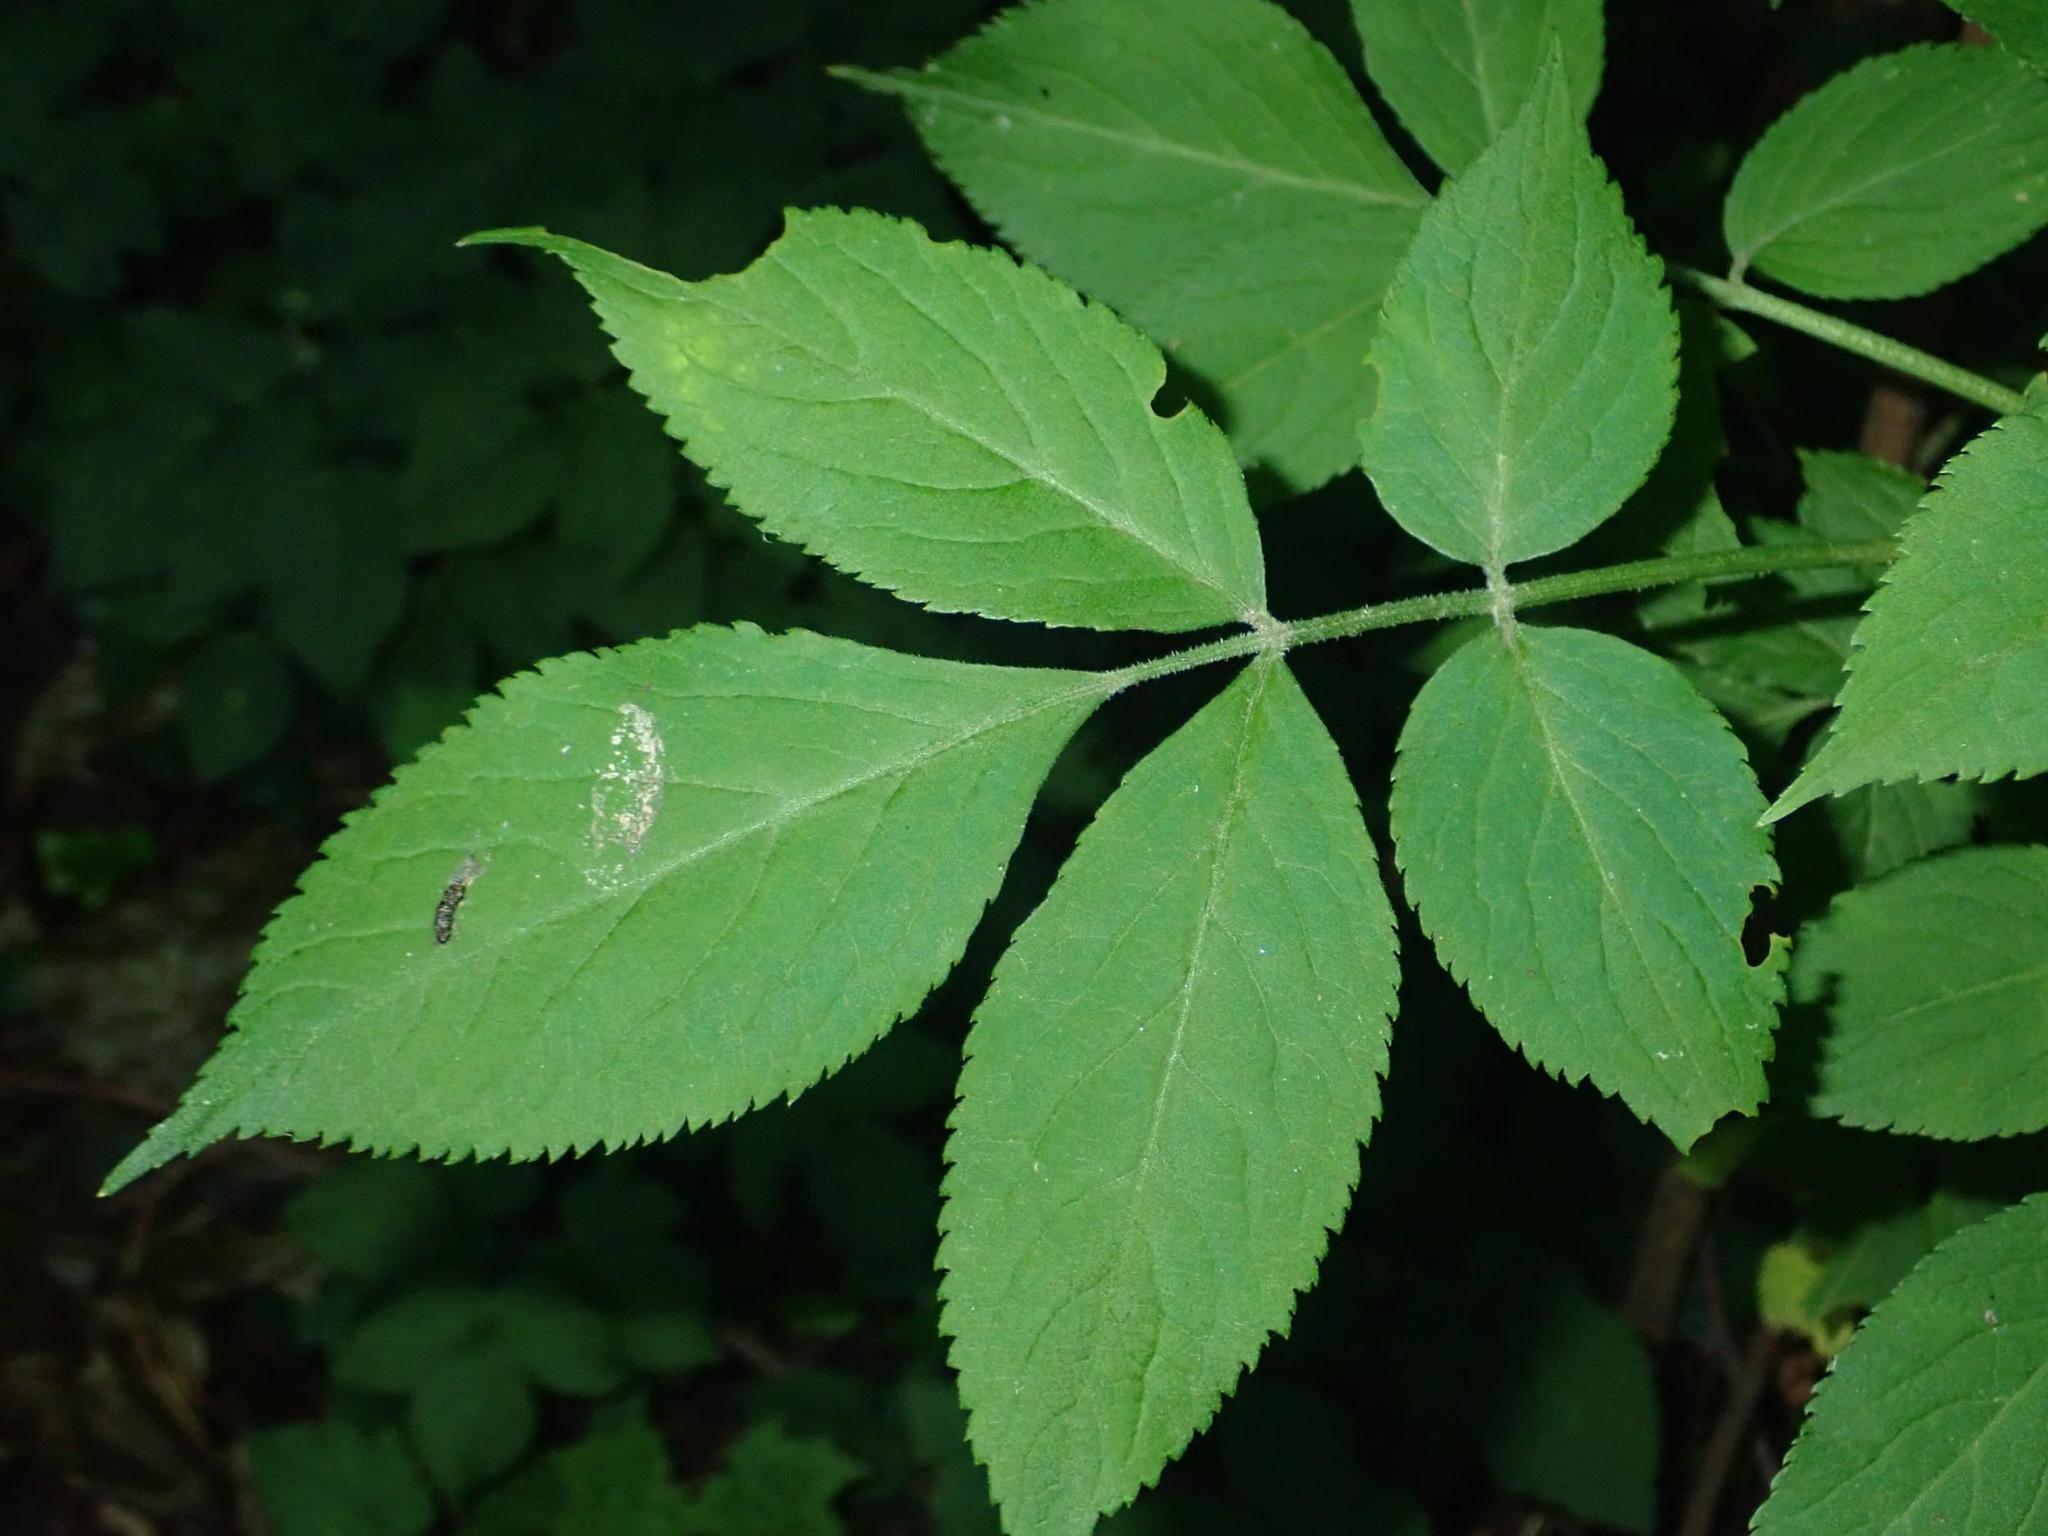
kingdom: Plantae
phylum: Tracheophyta
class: Magnoliopsida
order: Dipsacales
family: Viburnaceae
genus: Sambucus
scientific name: Sambucus nigra
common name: Elder
